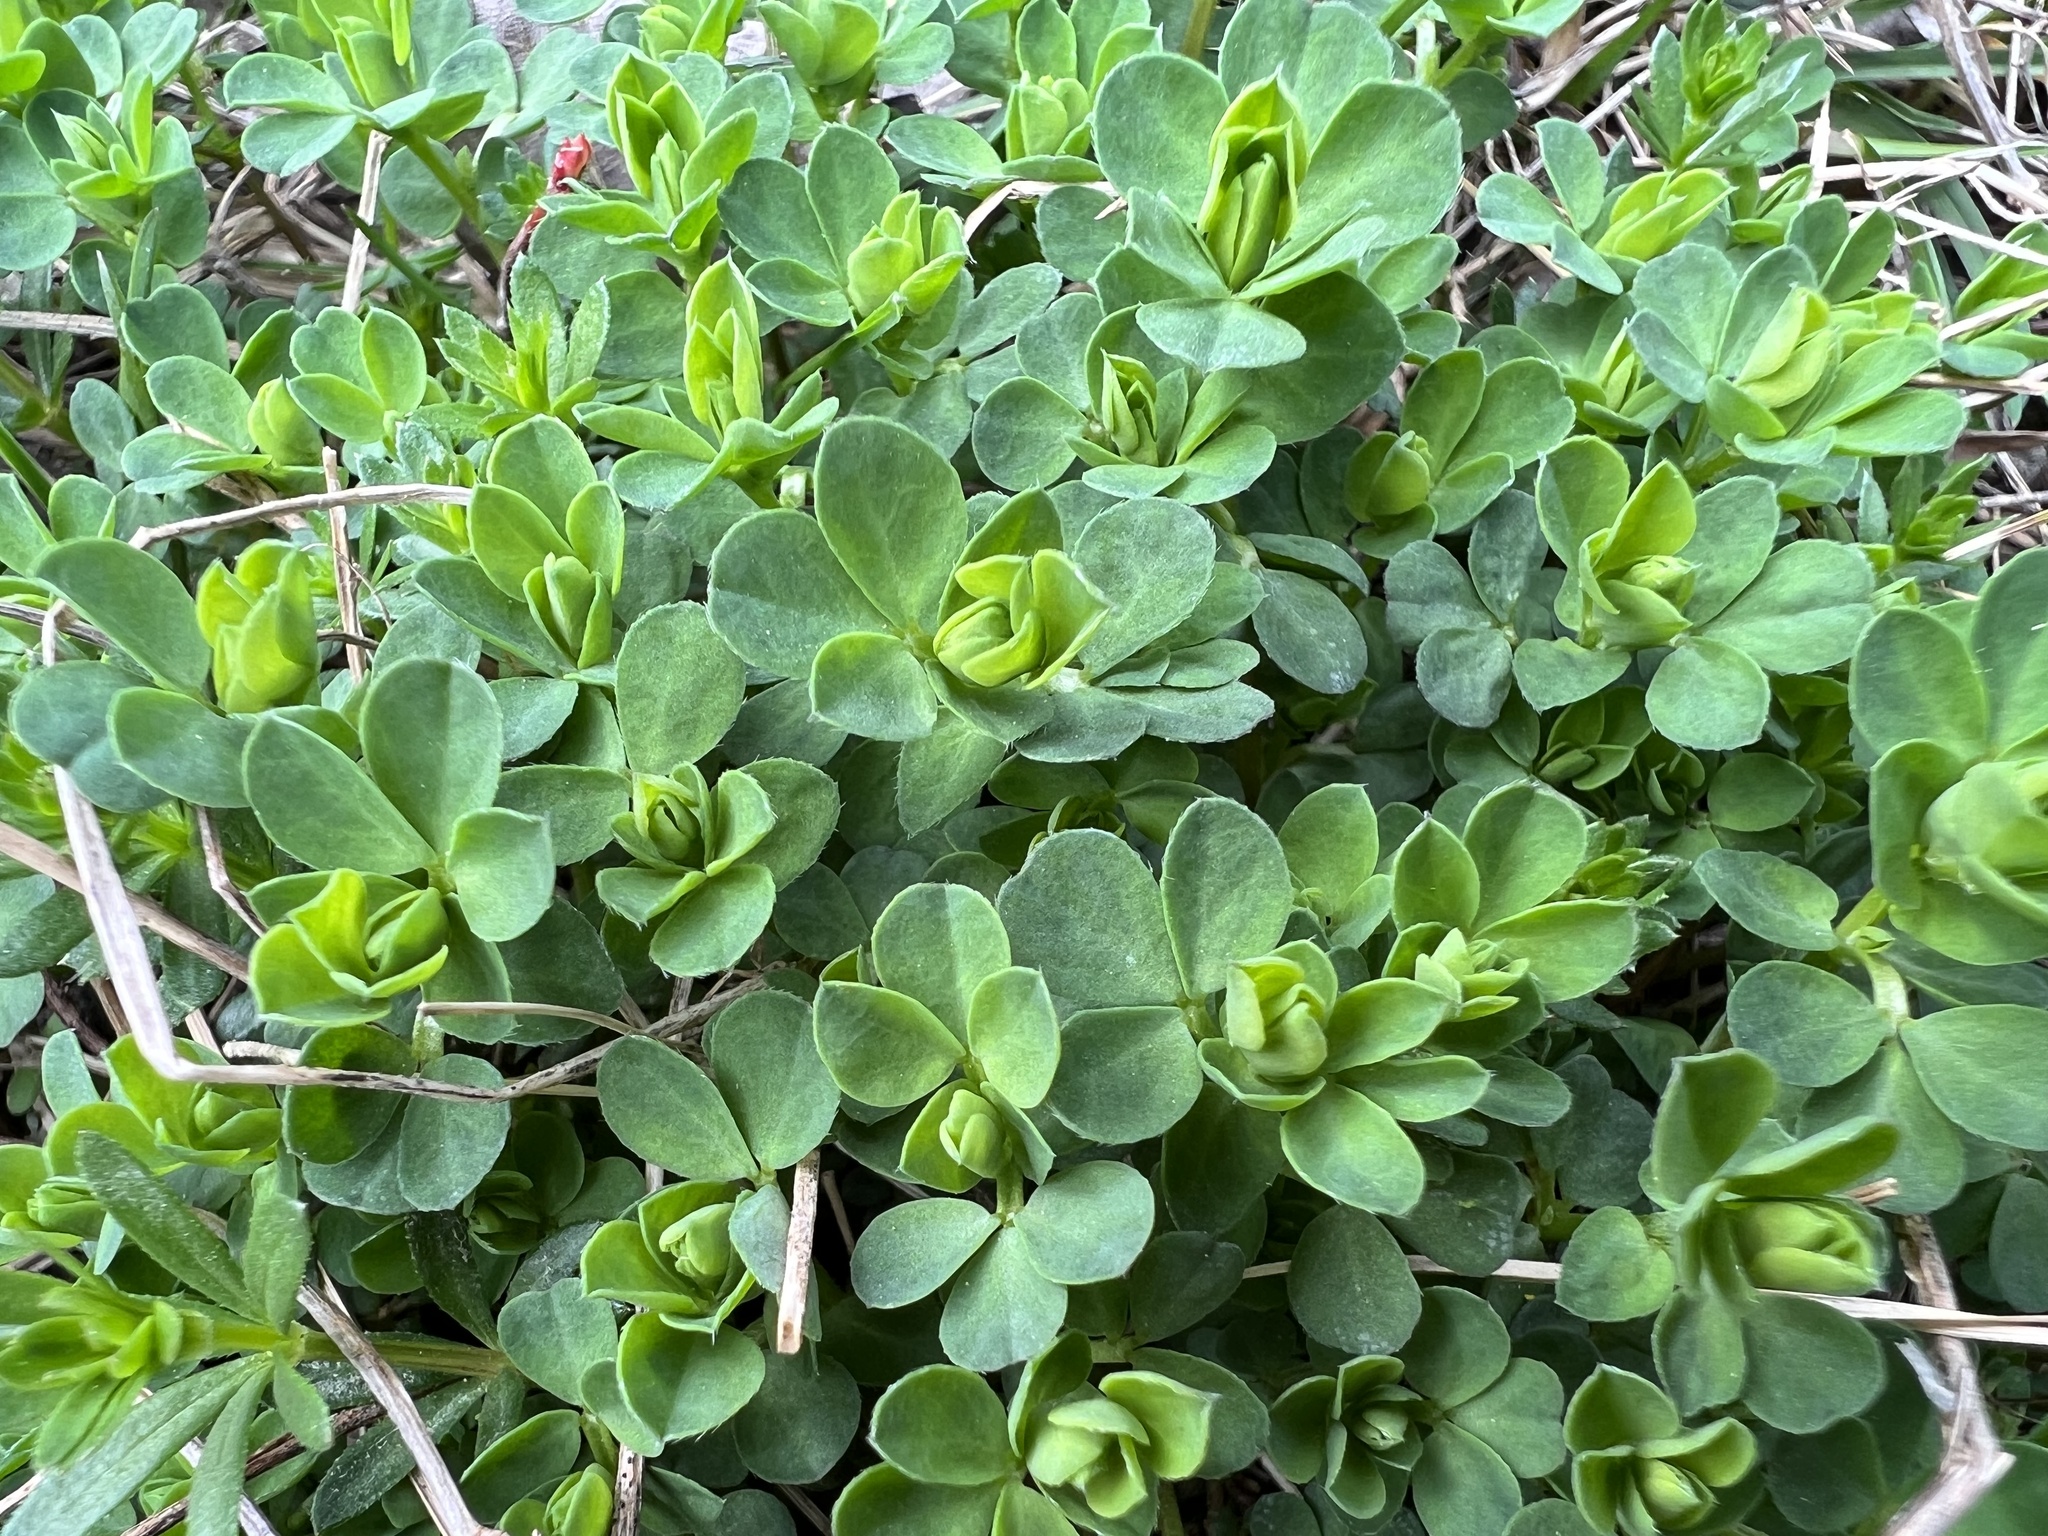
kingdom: Plantae
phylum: Tracheophyta
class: Magnoliopsida
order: Fabales
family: Fabaceae
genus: Lotus
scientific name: Lotus corniculatus
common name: Common bird's-foot-trefoil
